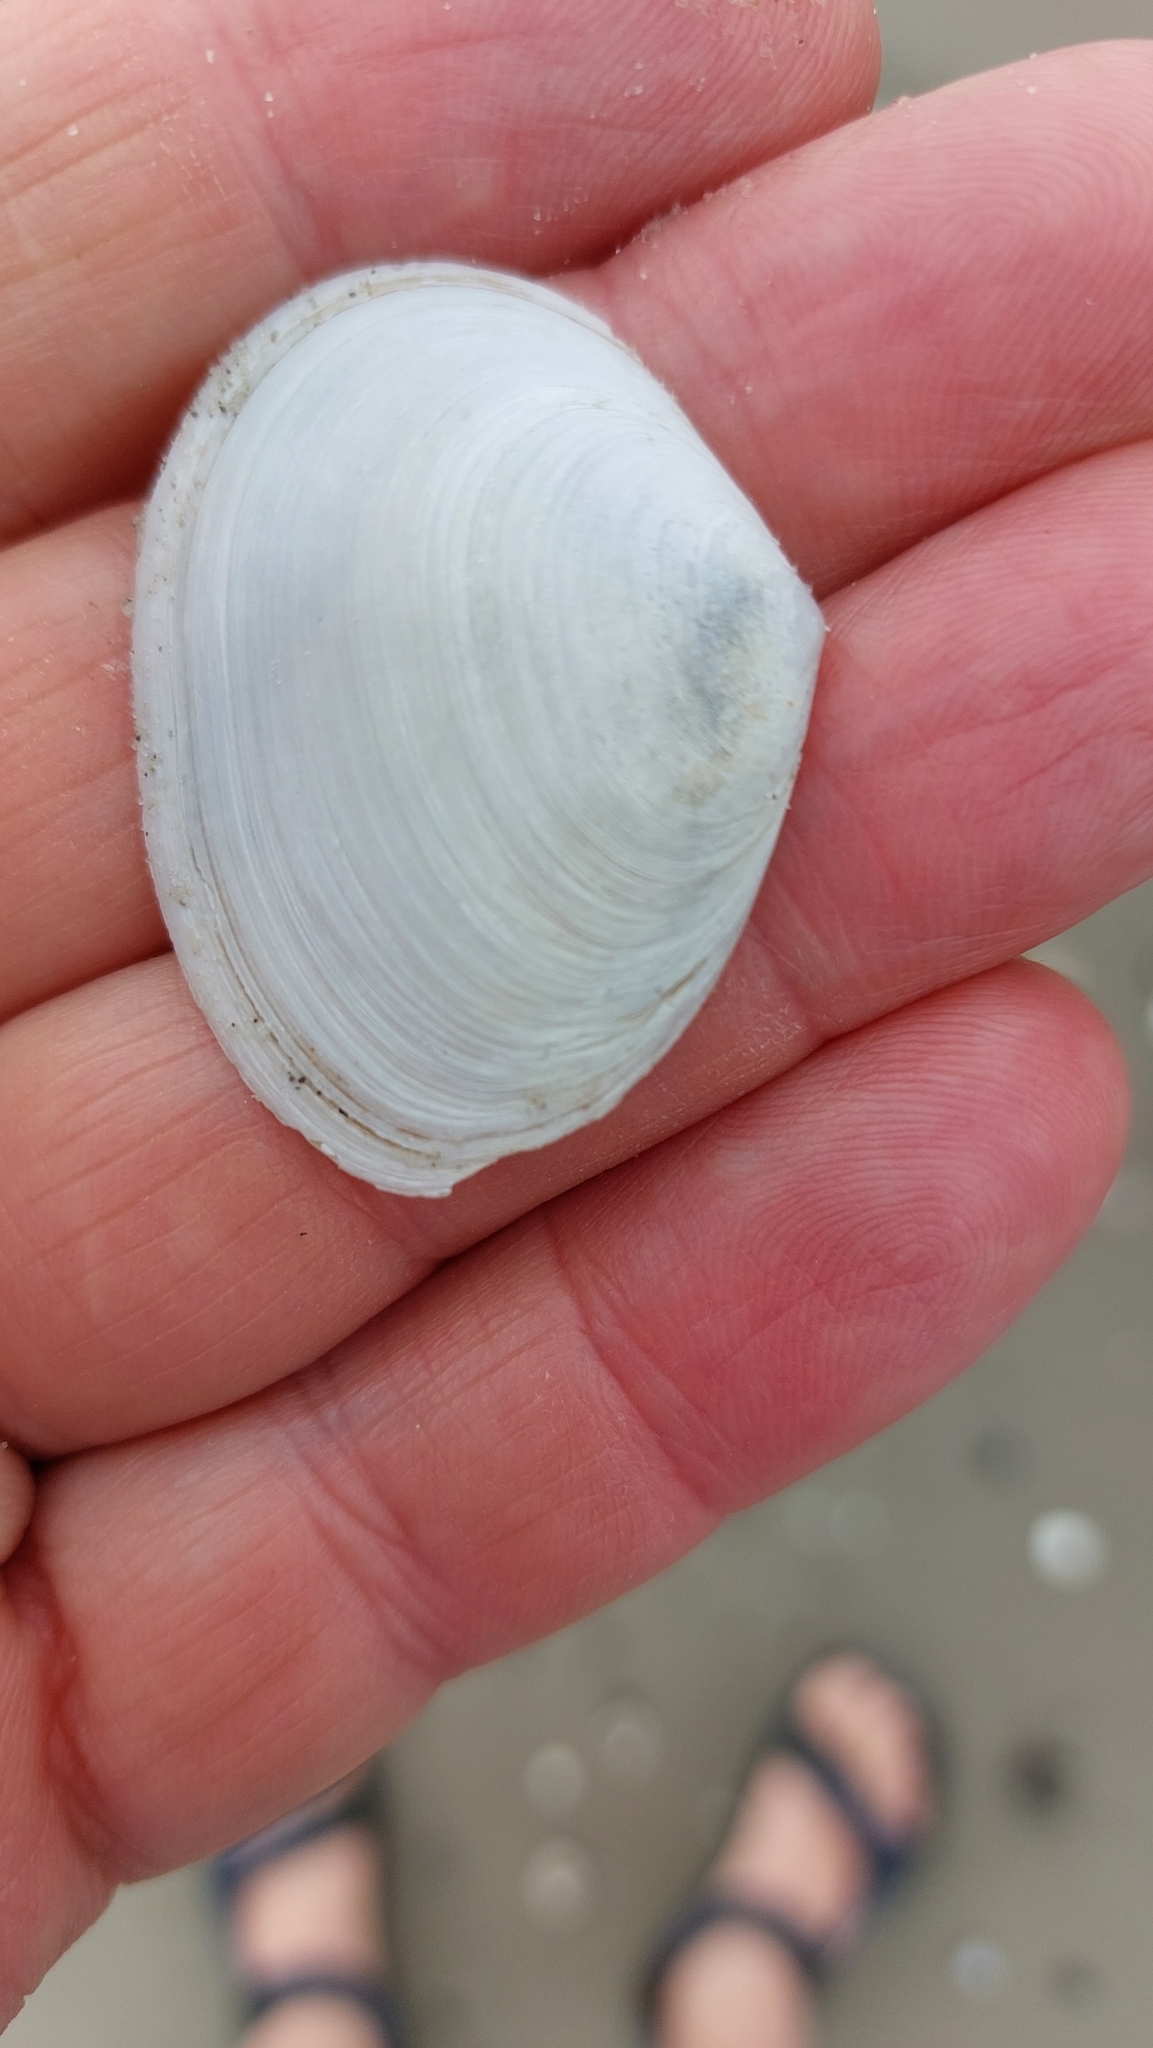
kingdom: Animalia
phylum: Mollusca
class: Bivalvia
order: Cardiida
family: Semelidae
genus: Scrobicularia
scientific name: Scrobicularia plana
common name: Peppery furrow shell
